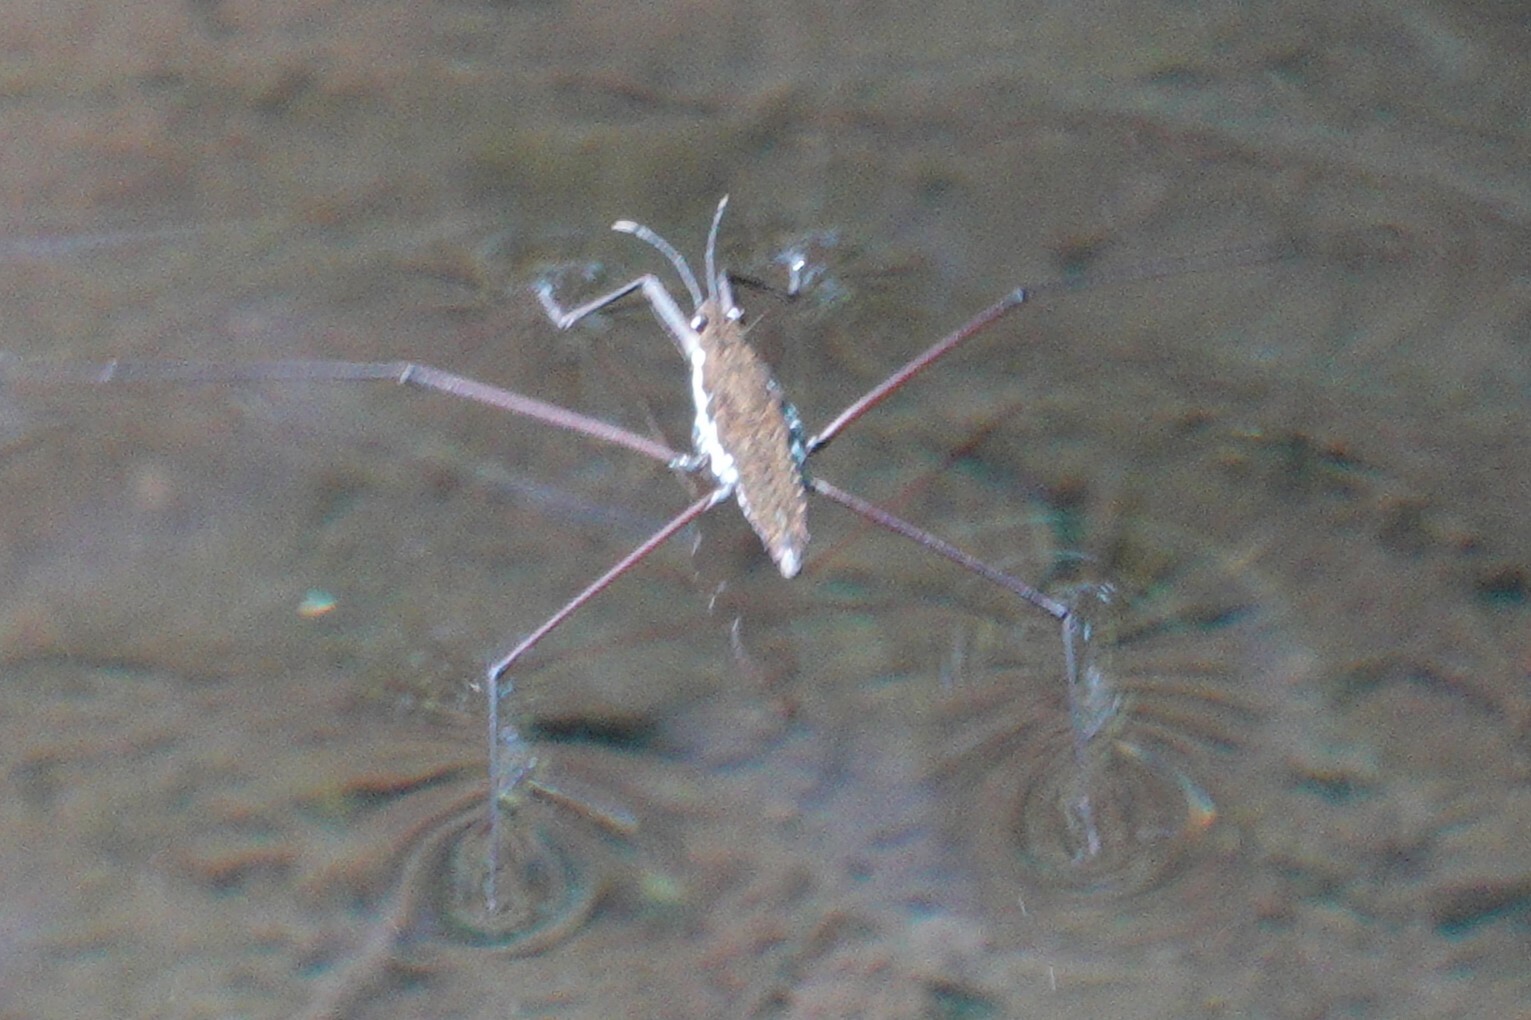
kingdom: Animalia
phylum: Arthropoda
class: Insecta
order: Hemiptera
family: Gerridae
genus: Aquarius
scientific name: Aquarius
